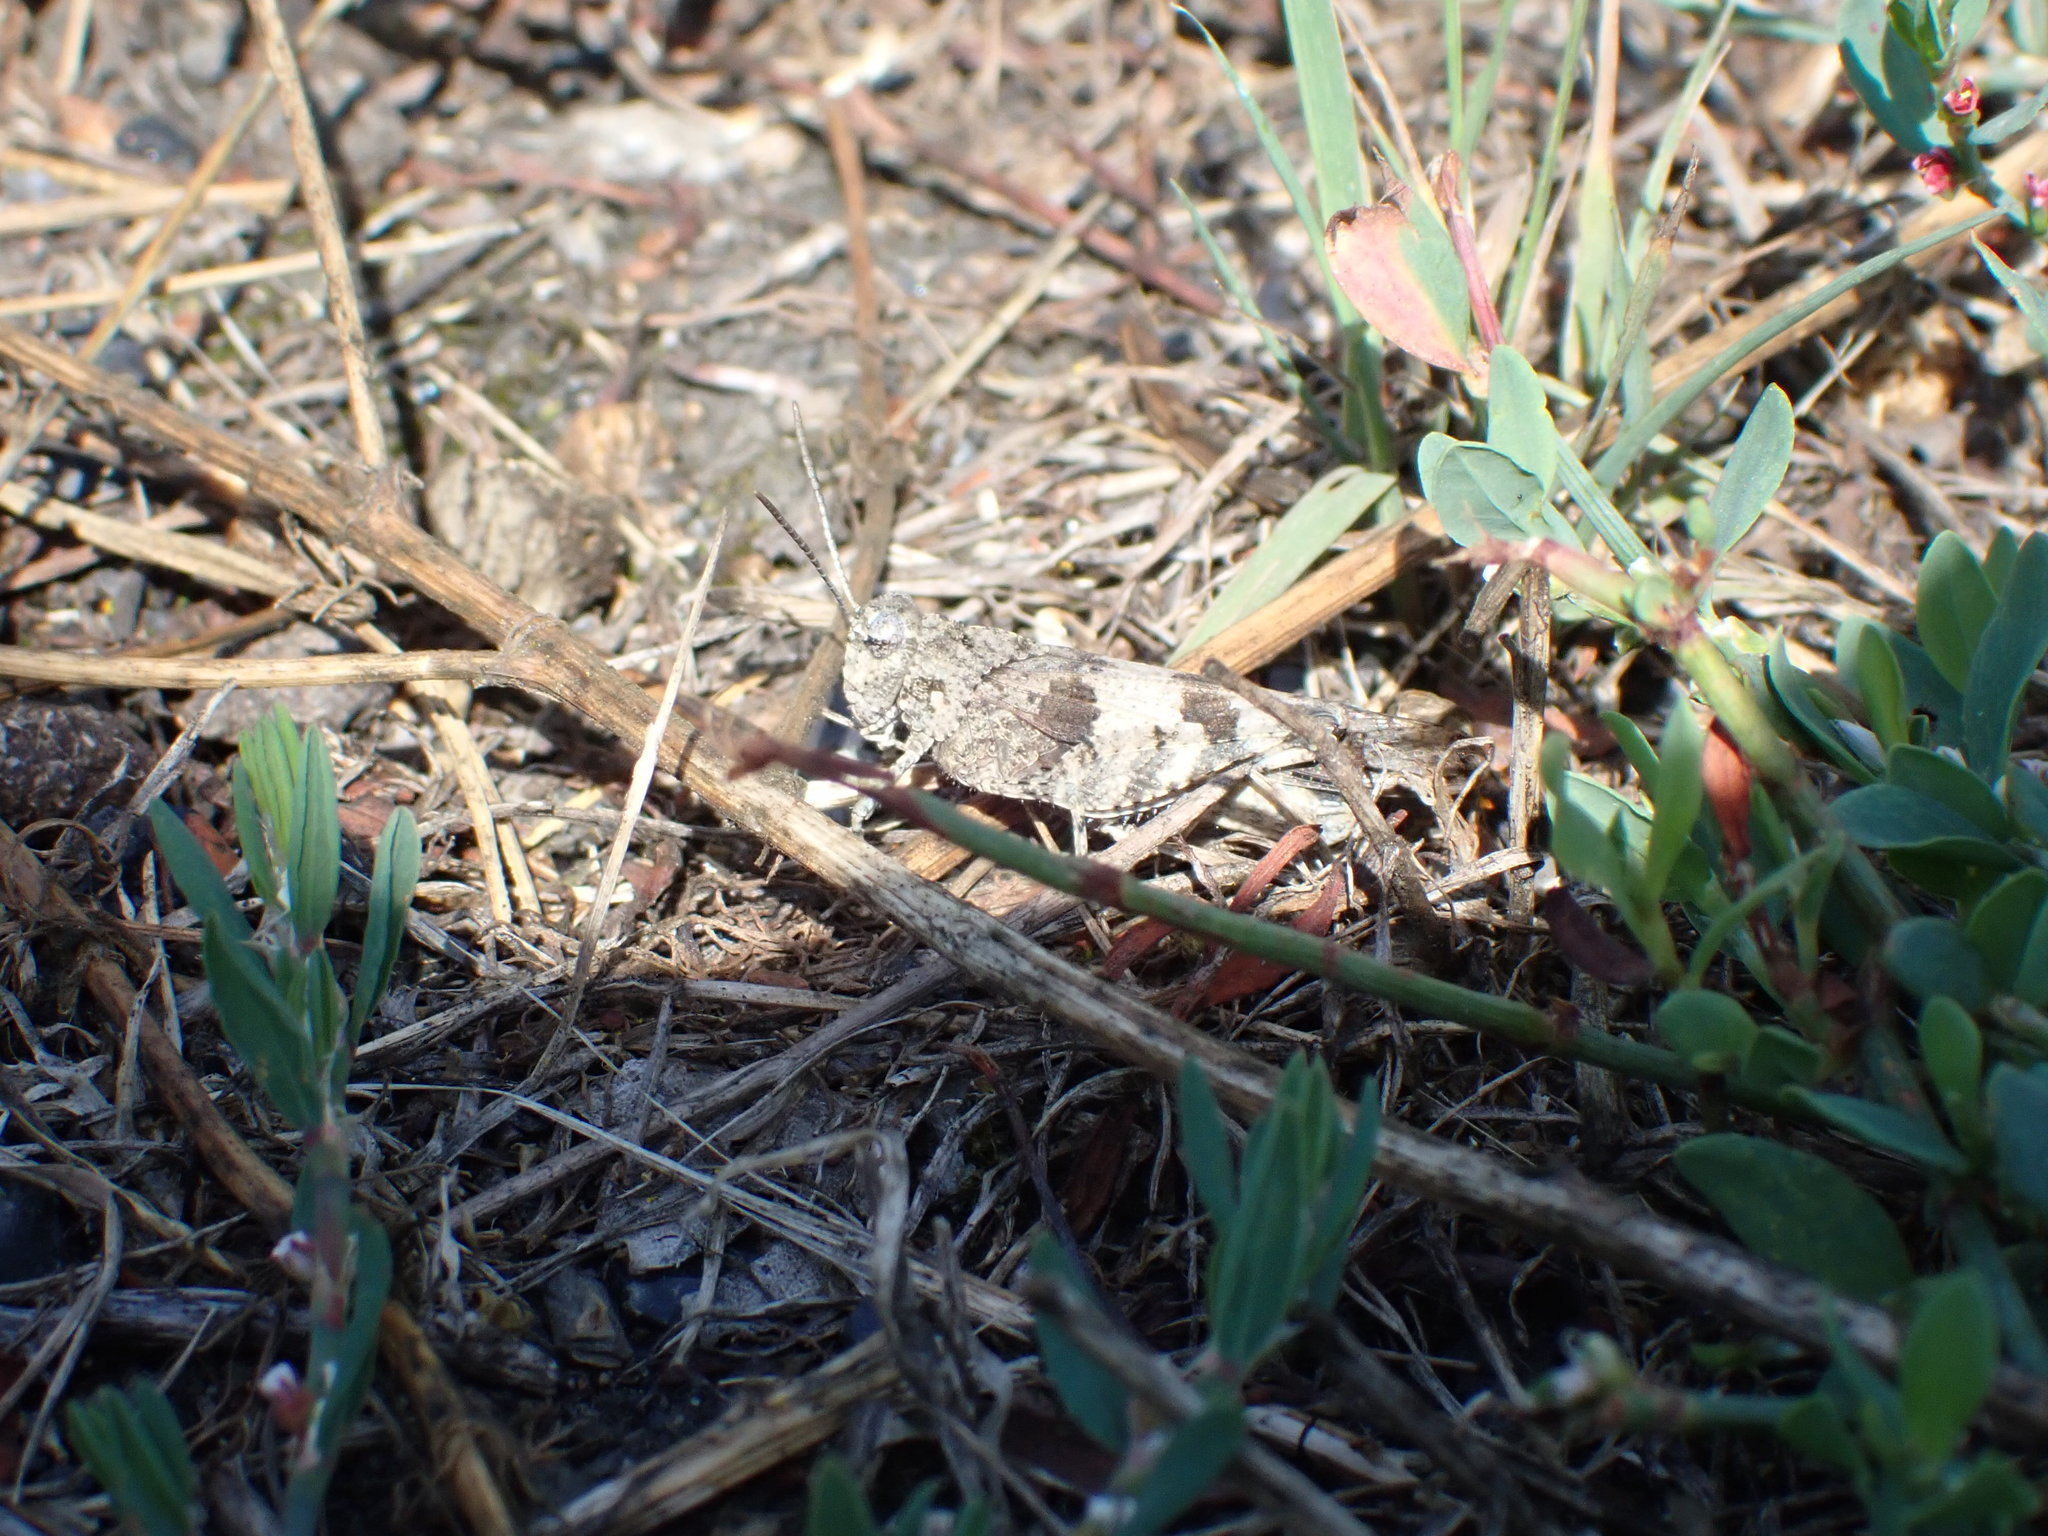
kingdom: Animalia
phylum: Arthropoda
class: Insecta
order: Orthoptera
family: Acrididae
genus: Oedipoda
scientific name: Oedipoda caerulescens
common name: Blue-winged grasshopper
